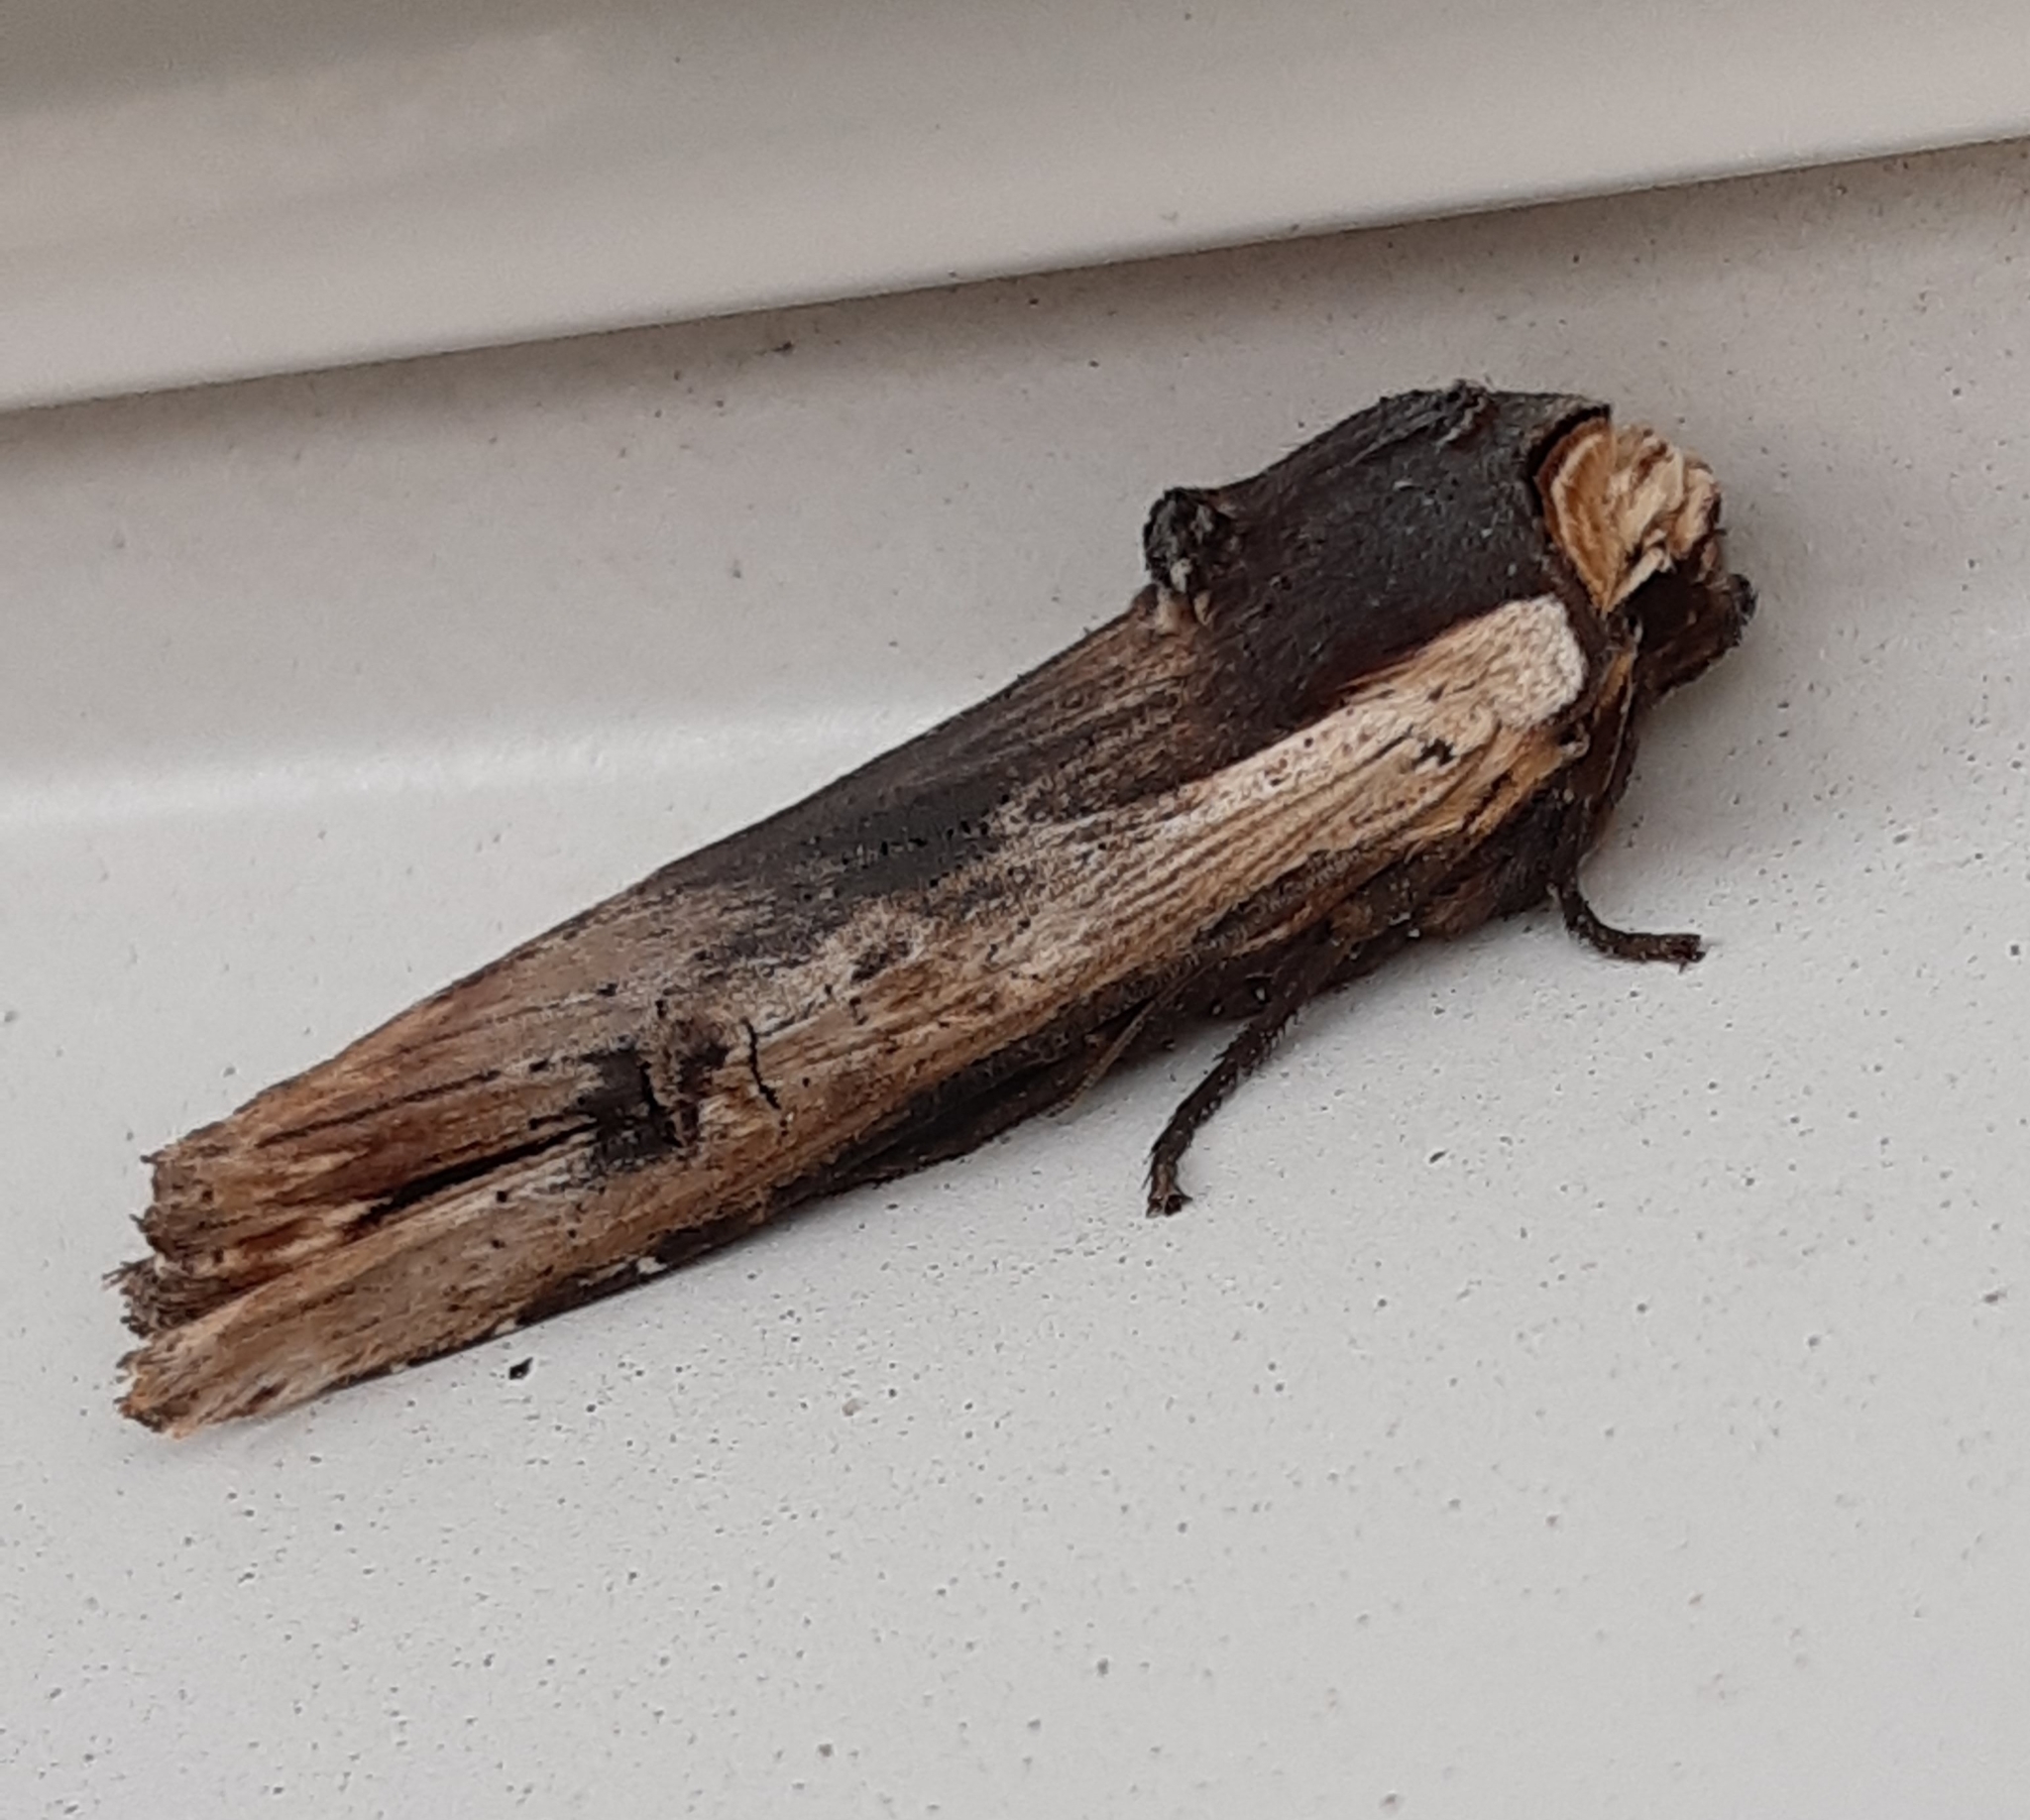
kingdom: Animalia
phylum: Arthropoda
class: Insecta
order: Lepidoptera
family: Noctuidae
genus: Xylena
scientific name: Xylena vetusta
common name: Red sword-grass
